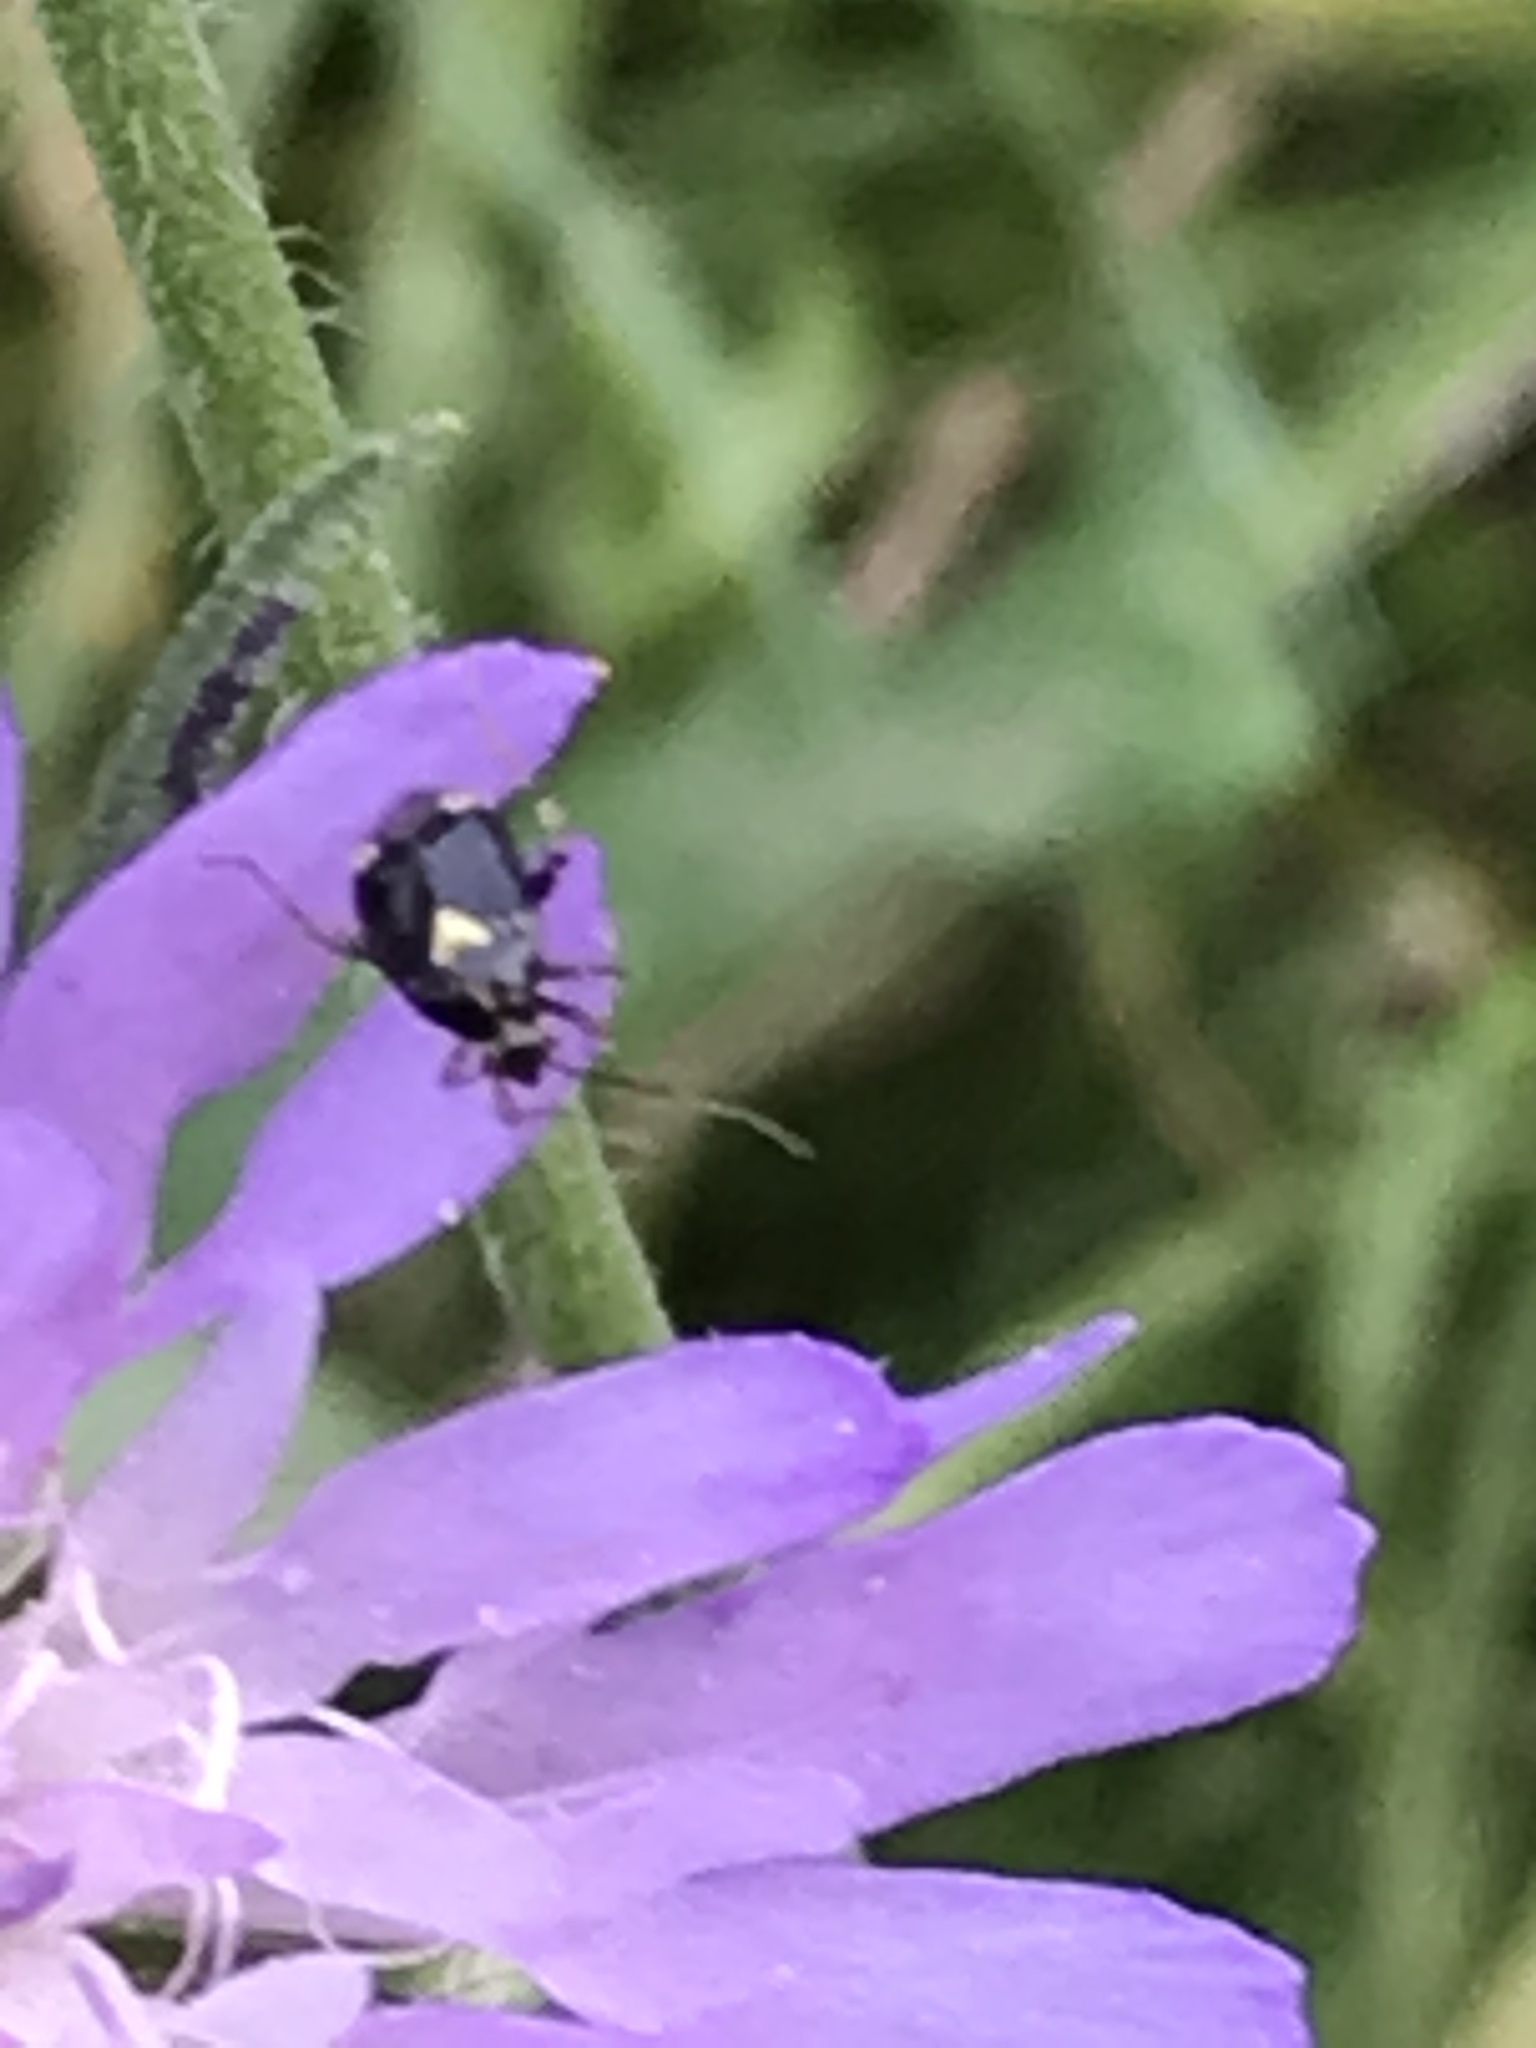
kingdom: Animalia
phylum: Arthropoda
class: Insecta
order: Hemiptera
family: Miridae
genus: Liocoris
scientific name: Liocoris tripustulatus
